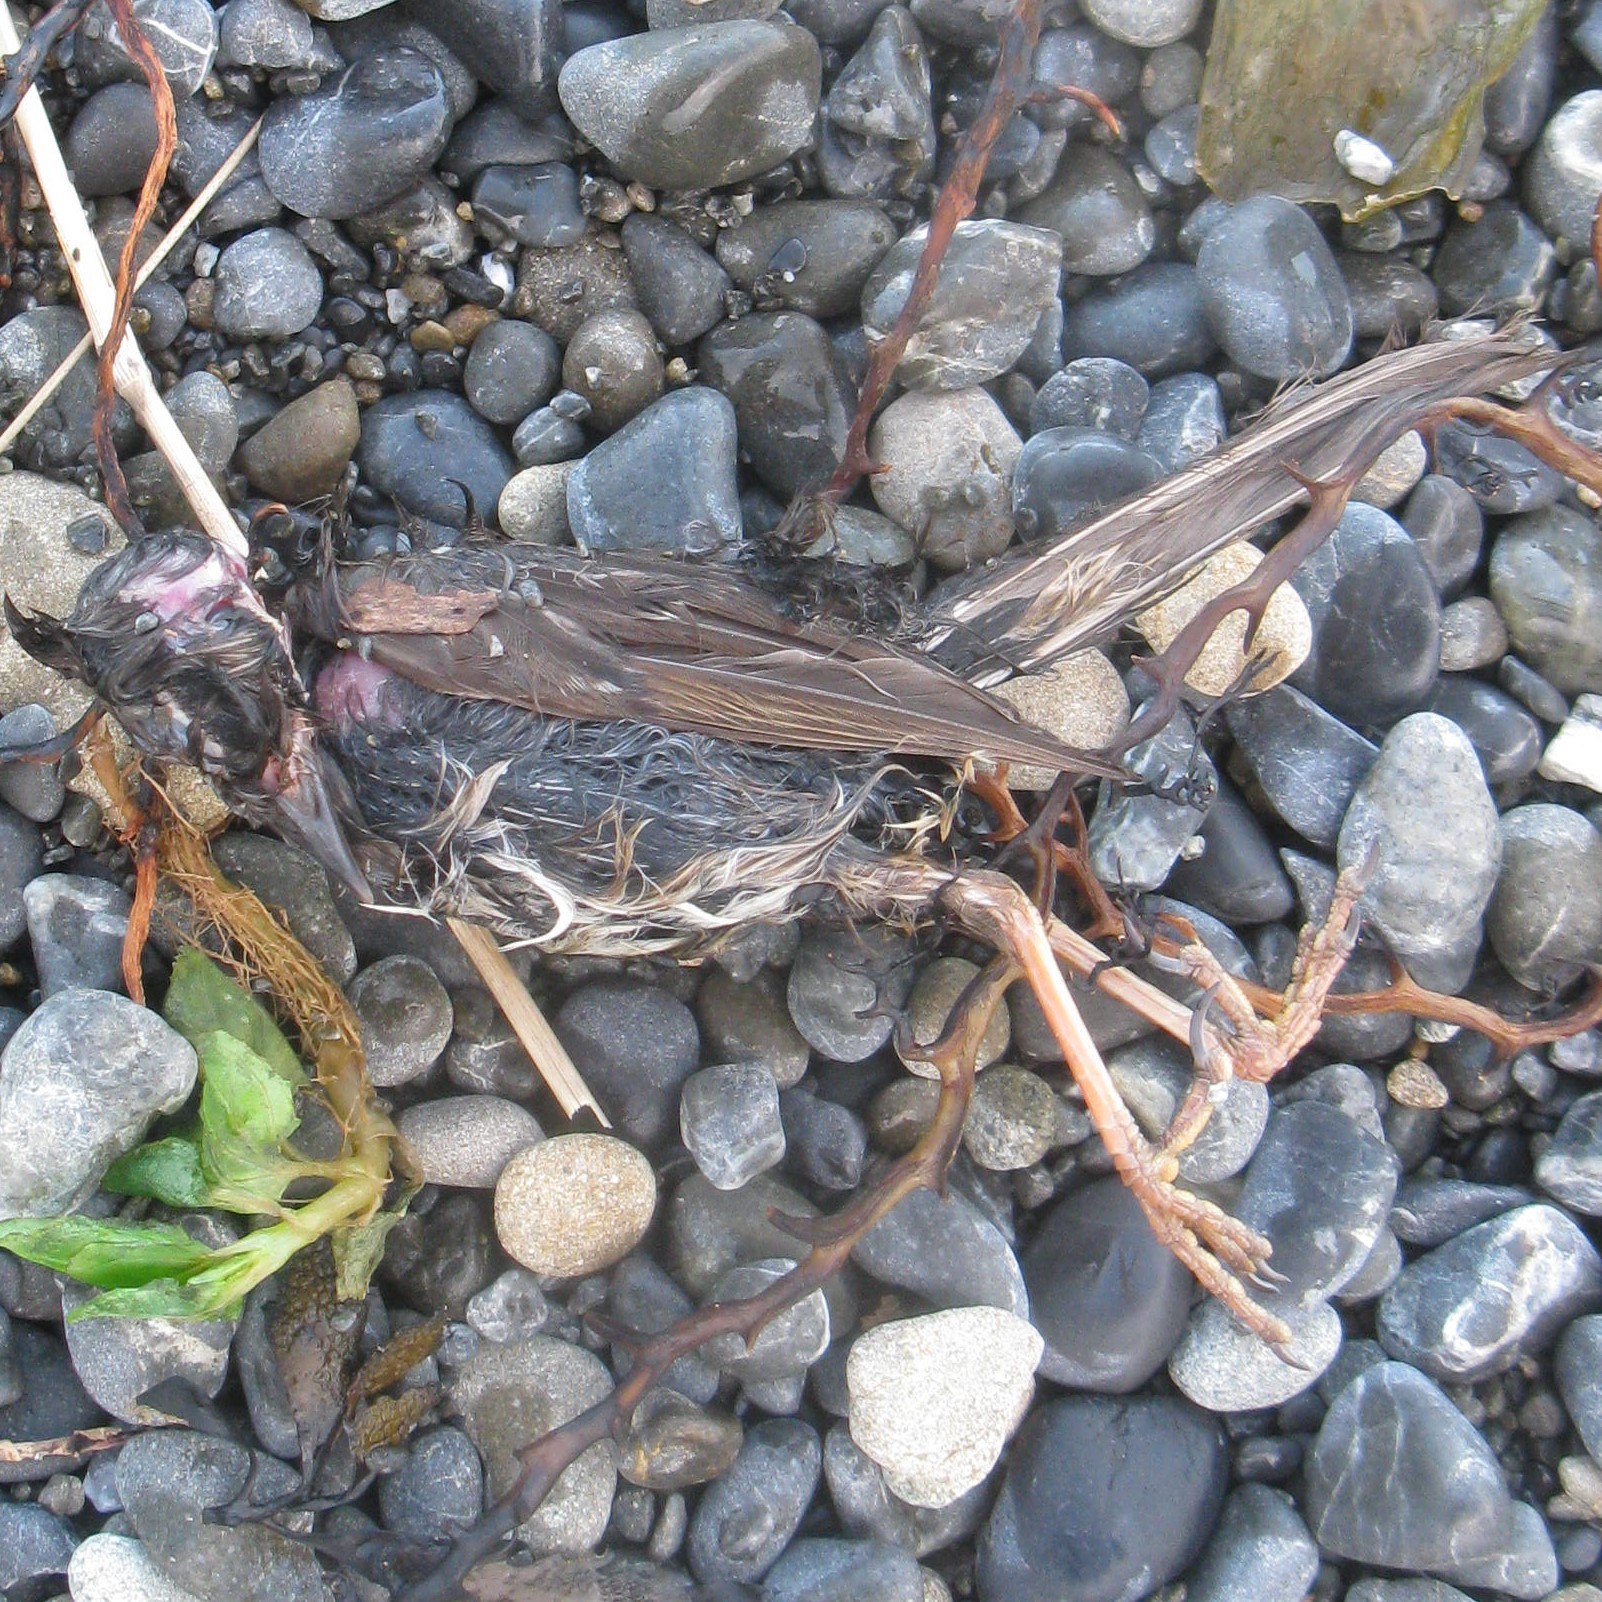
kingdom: Animalia
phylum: Chordata
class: Aves
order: Passeriformes
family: Turdidae
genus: Turdus
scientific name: Turdus philomelos
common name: Song thrush
